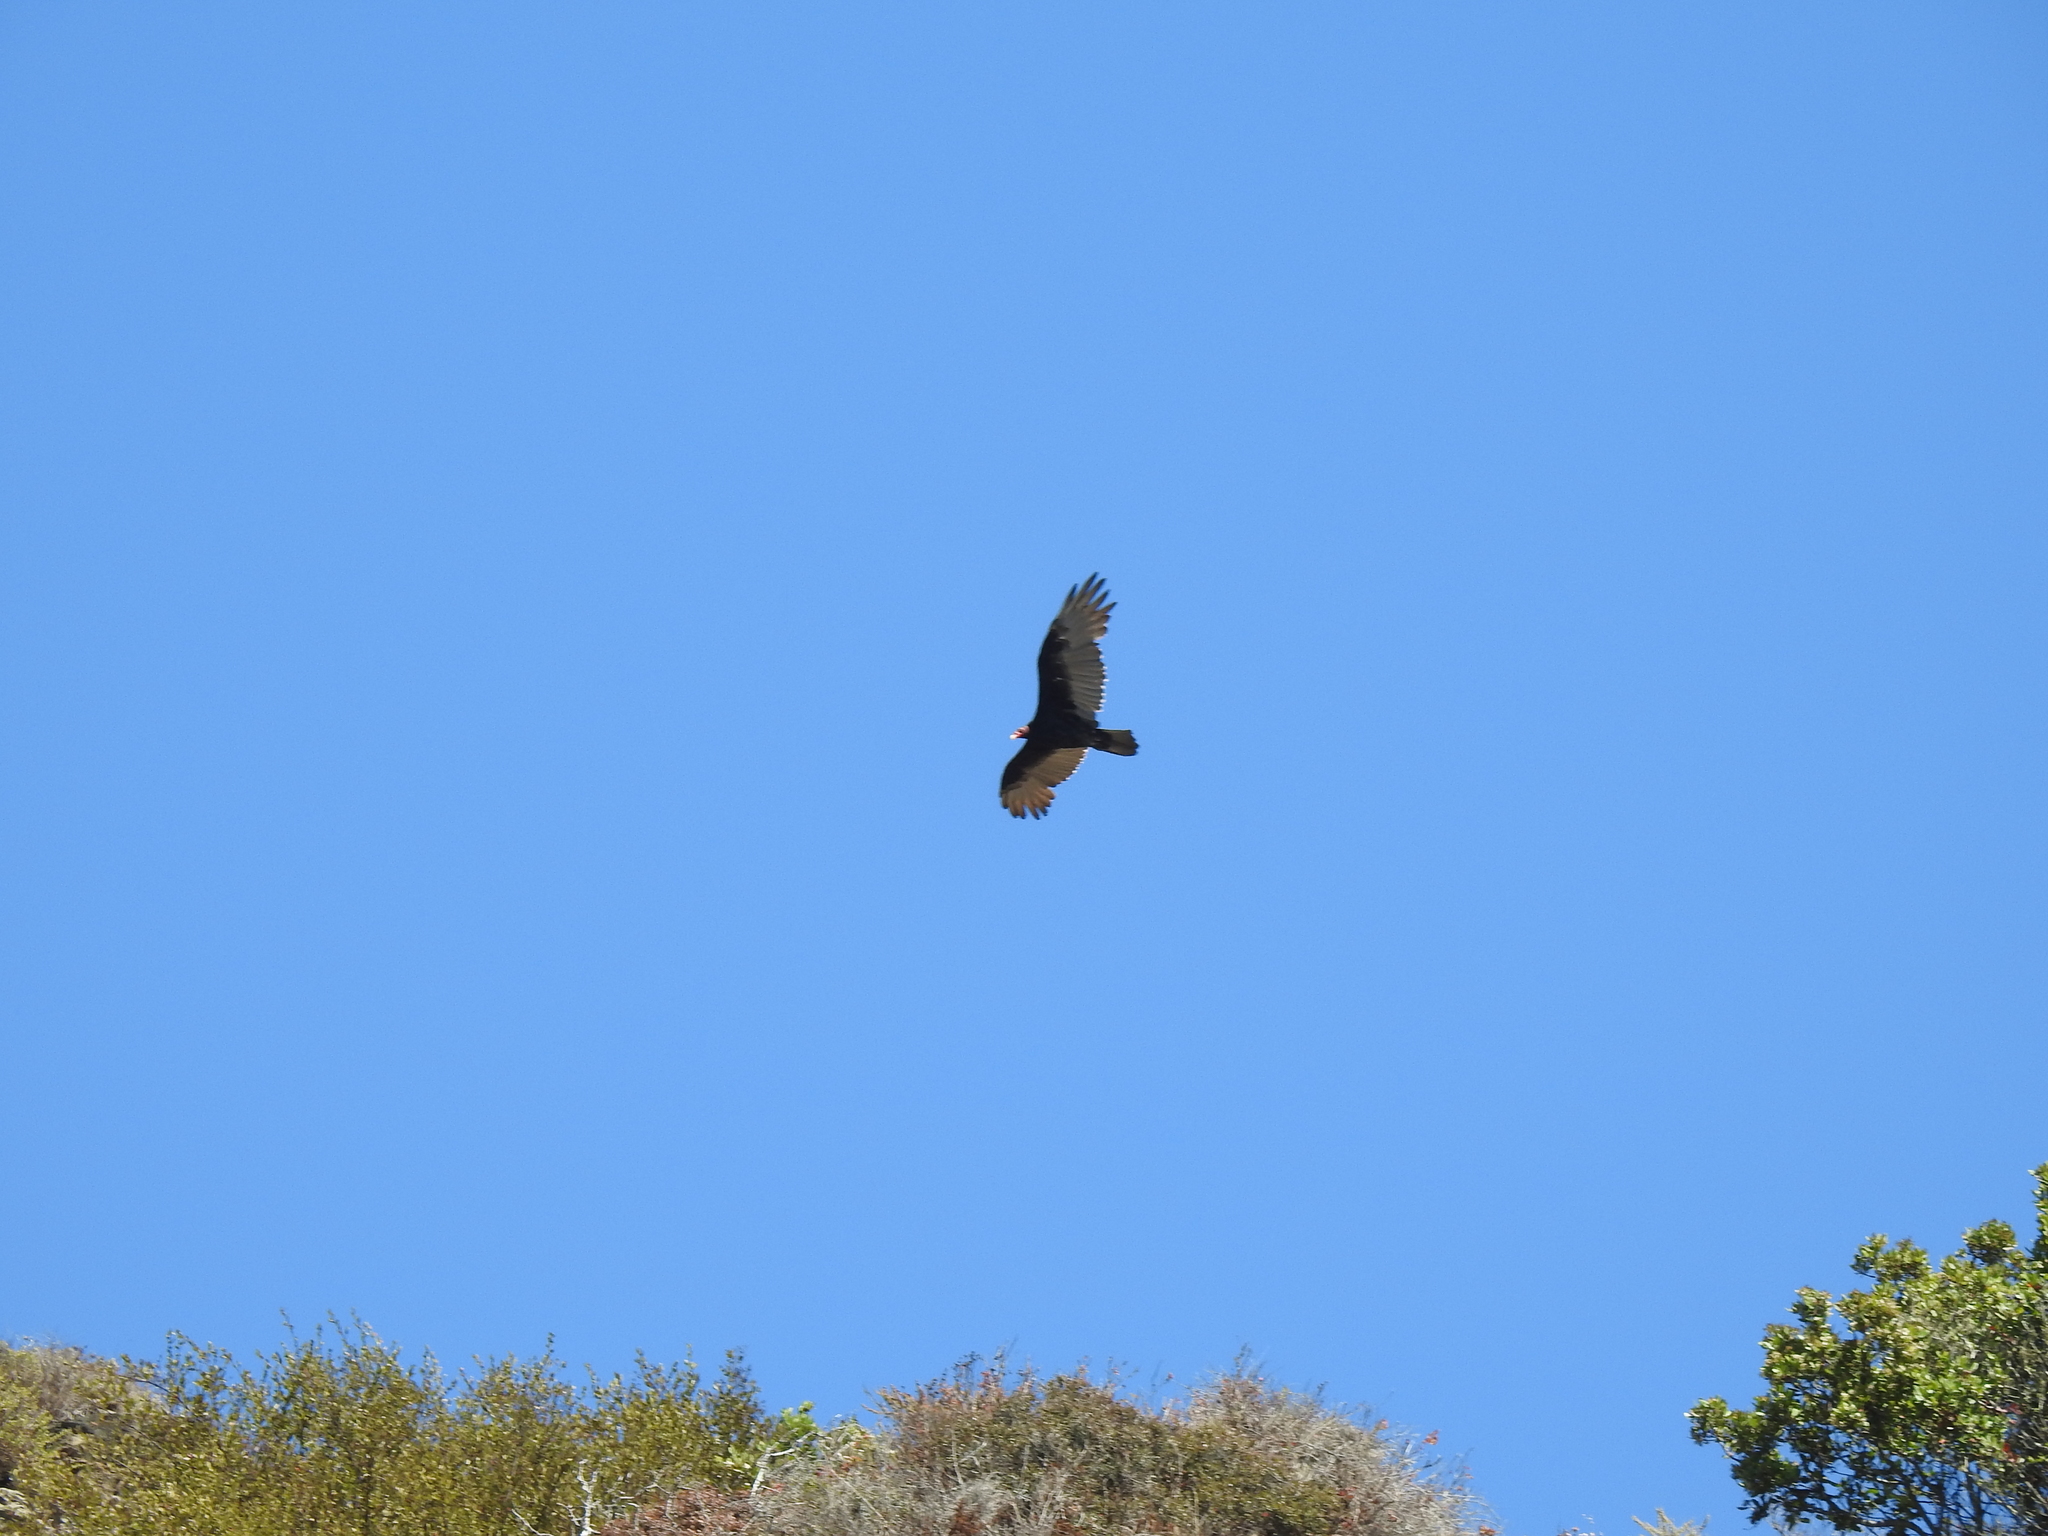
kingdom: Animalia
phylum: Chordata
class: Aves
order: Accipitriformes
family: Cathartidae
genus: Cathartes
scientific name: Cathartes aura
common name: Turkey vulture
